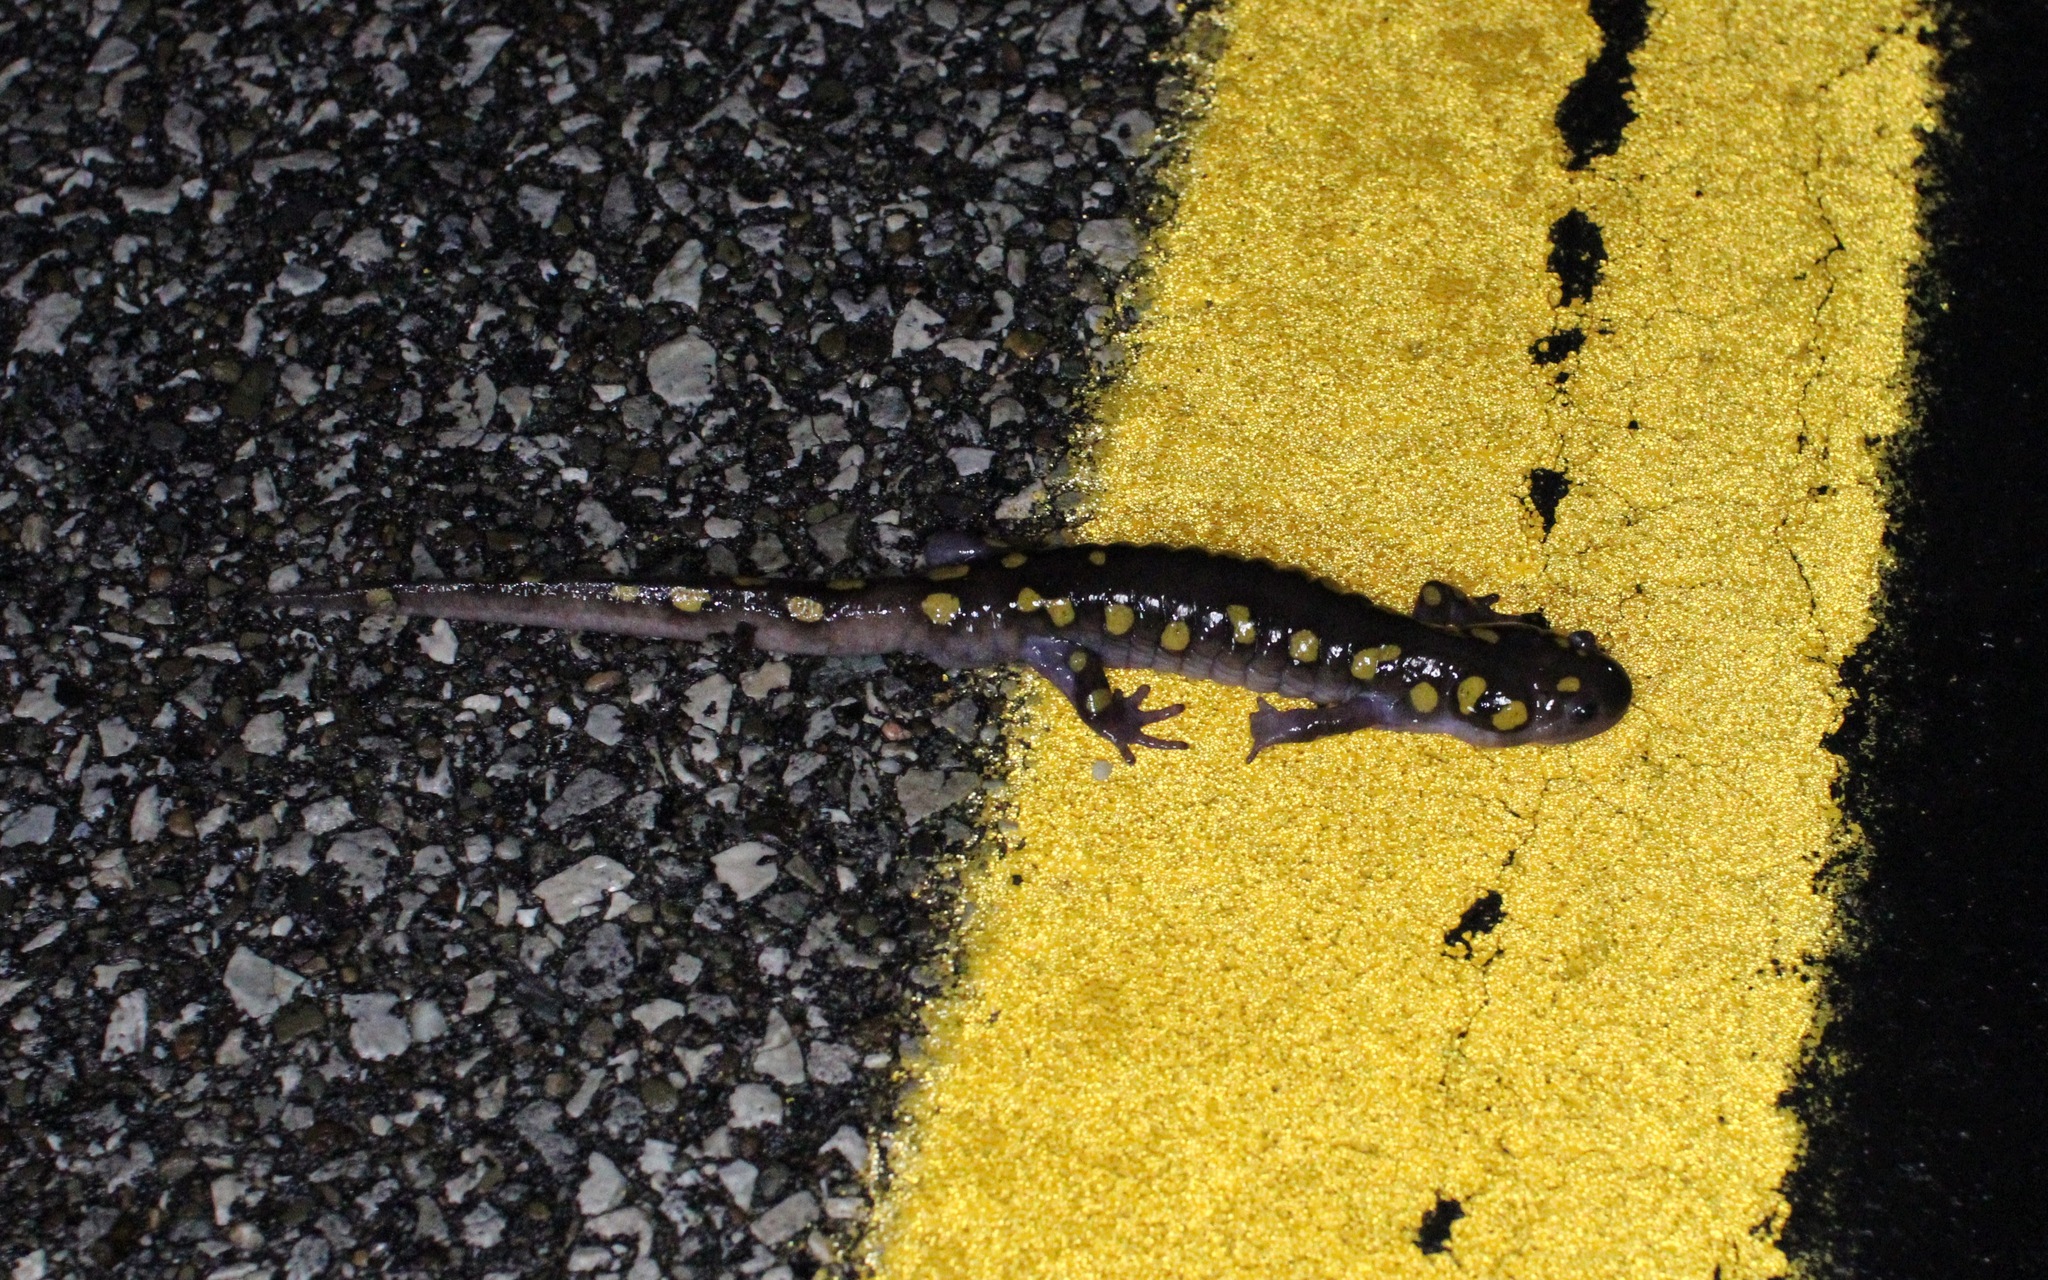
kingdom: Animalia
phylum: Chordata
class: Amphibia
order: Caudata
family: Ambystomatidae
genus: Ambystoma
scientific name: Ambystoma maculatum
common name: Spotted salamander
